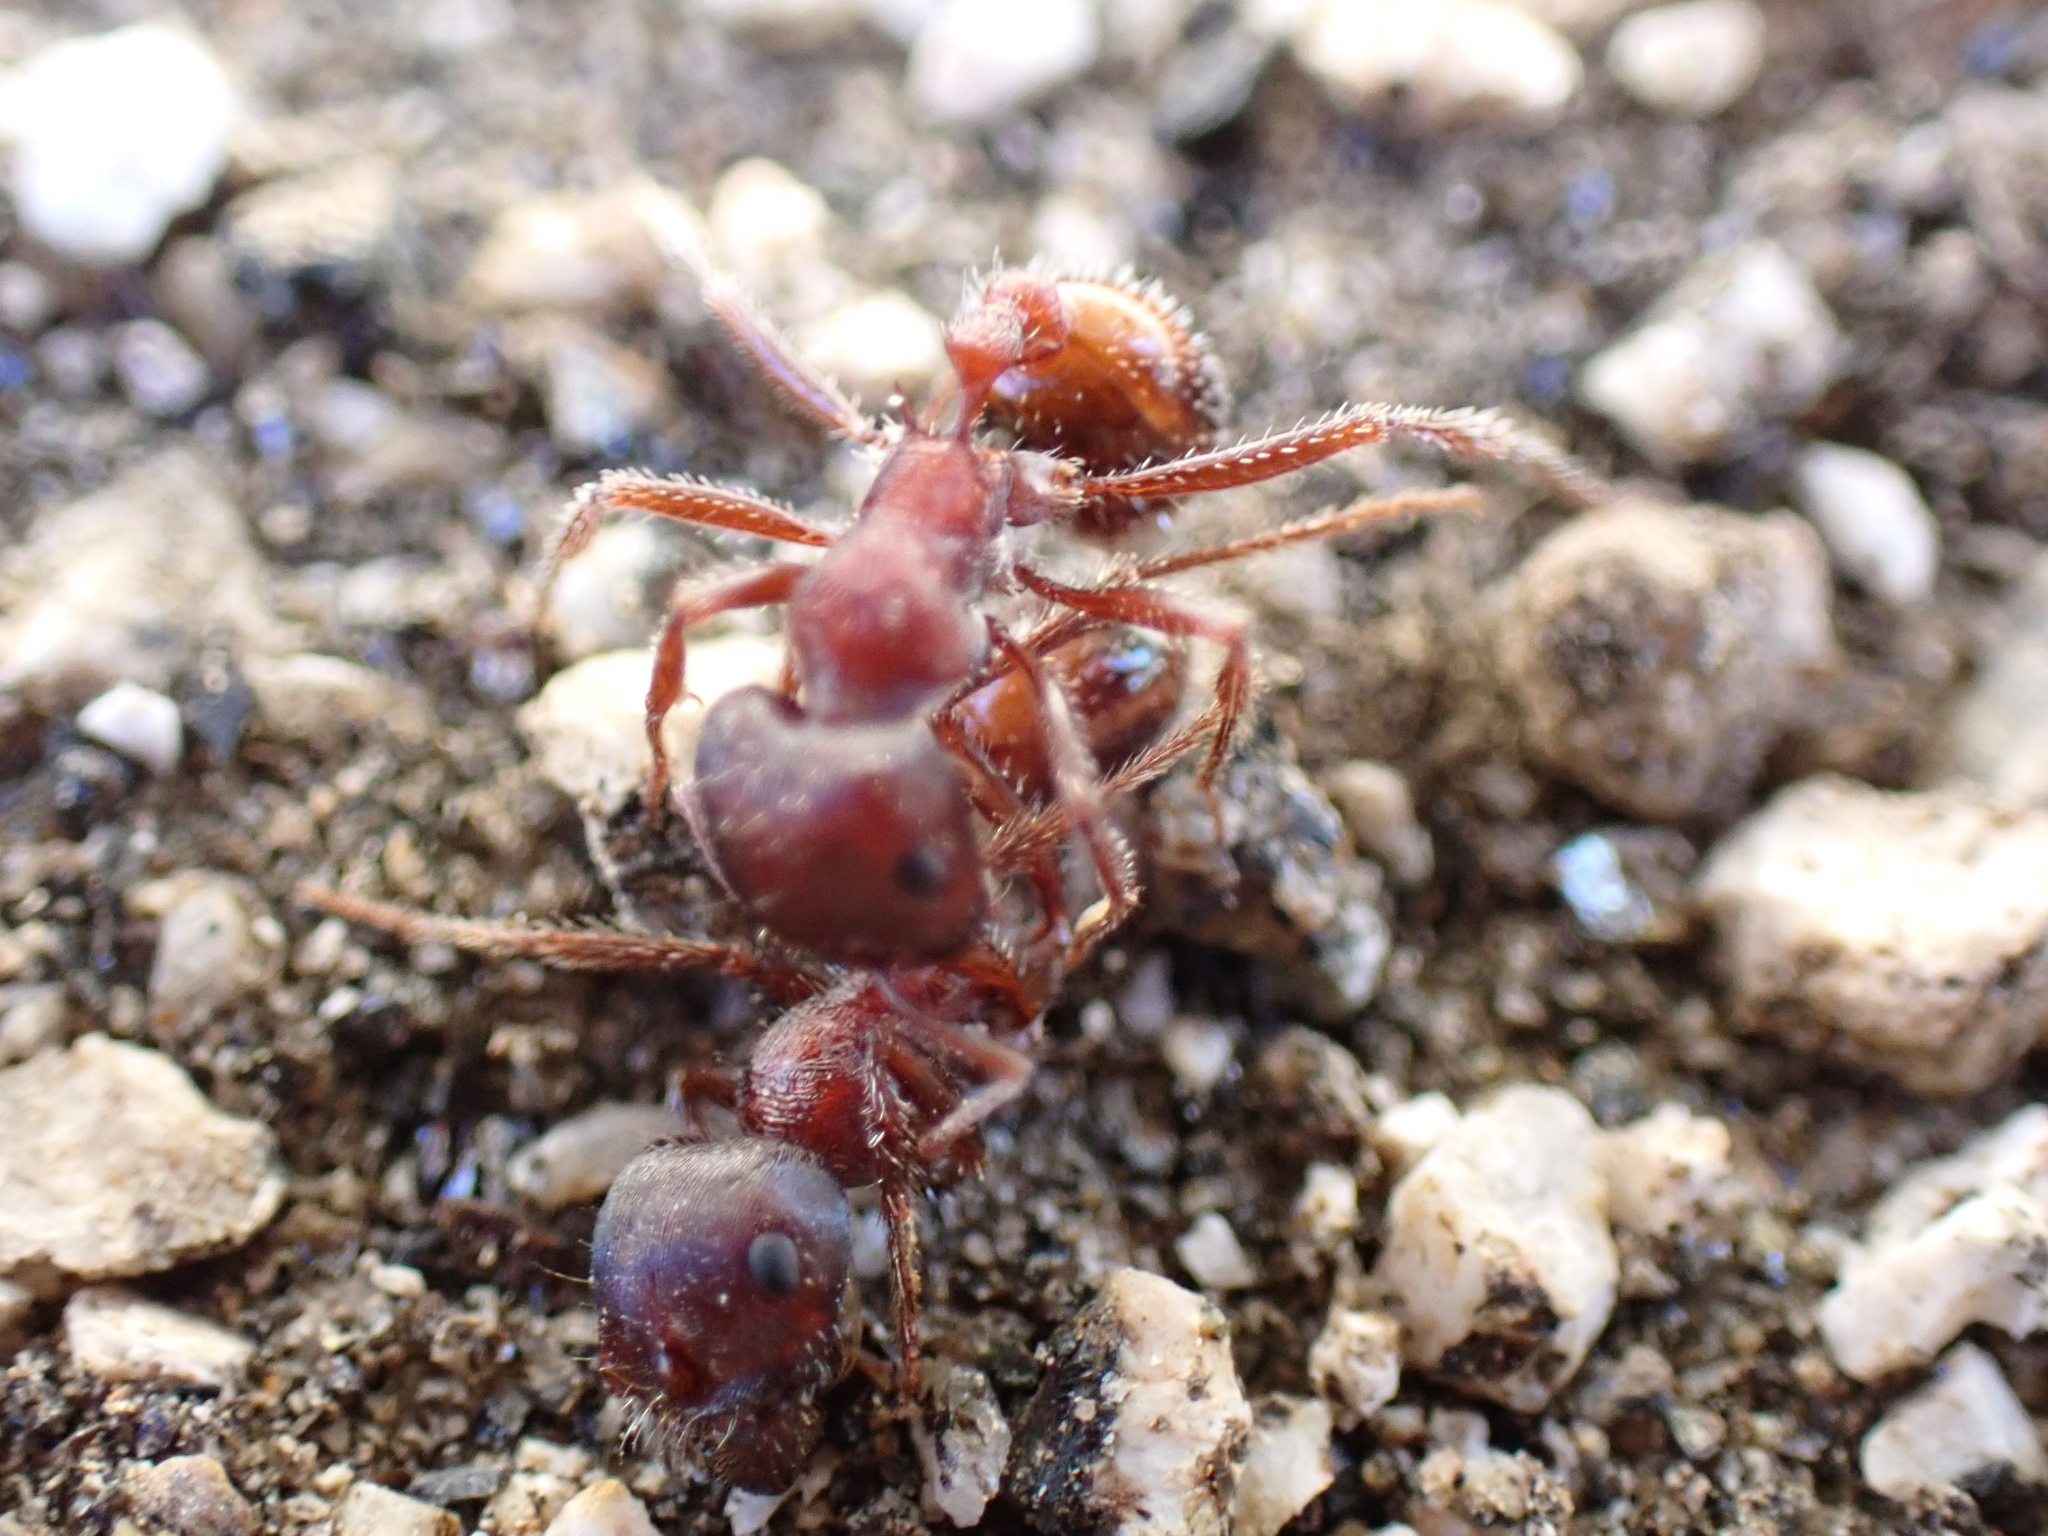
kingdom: Animalia
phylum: Arthropoda
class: Insecta
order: Hymenoptera
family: Formicidae
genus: Pogonomyrmex
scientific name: Pogonomyrmex rugosus
